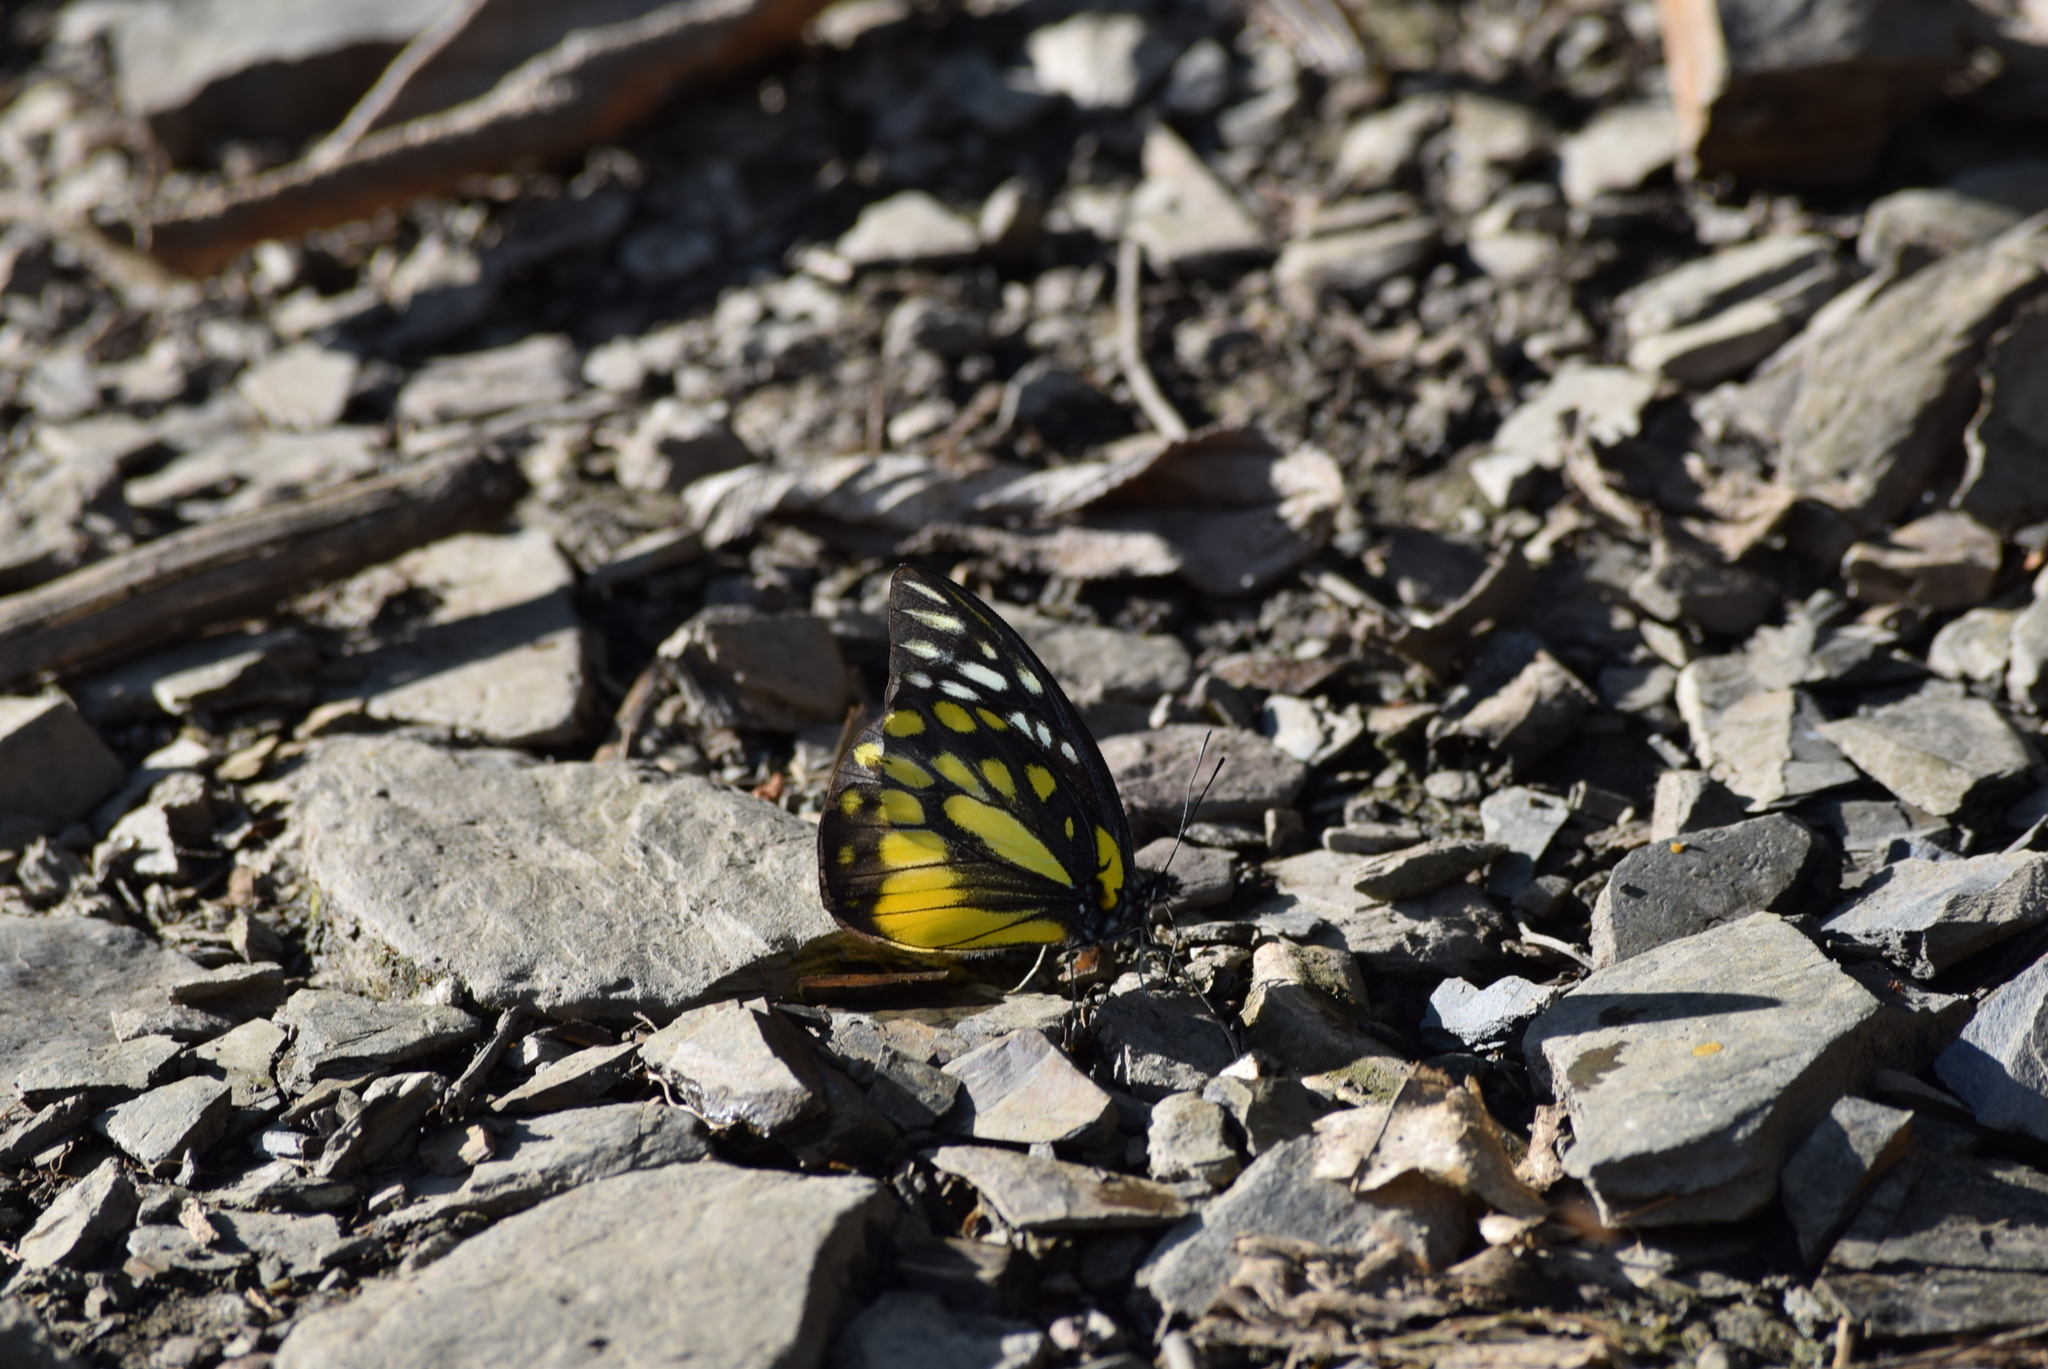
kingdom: Animalia
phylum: Arthropoda
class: Insecta
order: Lepidoptera
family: Pieridae
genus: Prioneris
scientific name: Prioneris thestylis
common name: Spotted sawtooth
